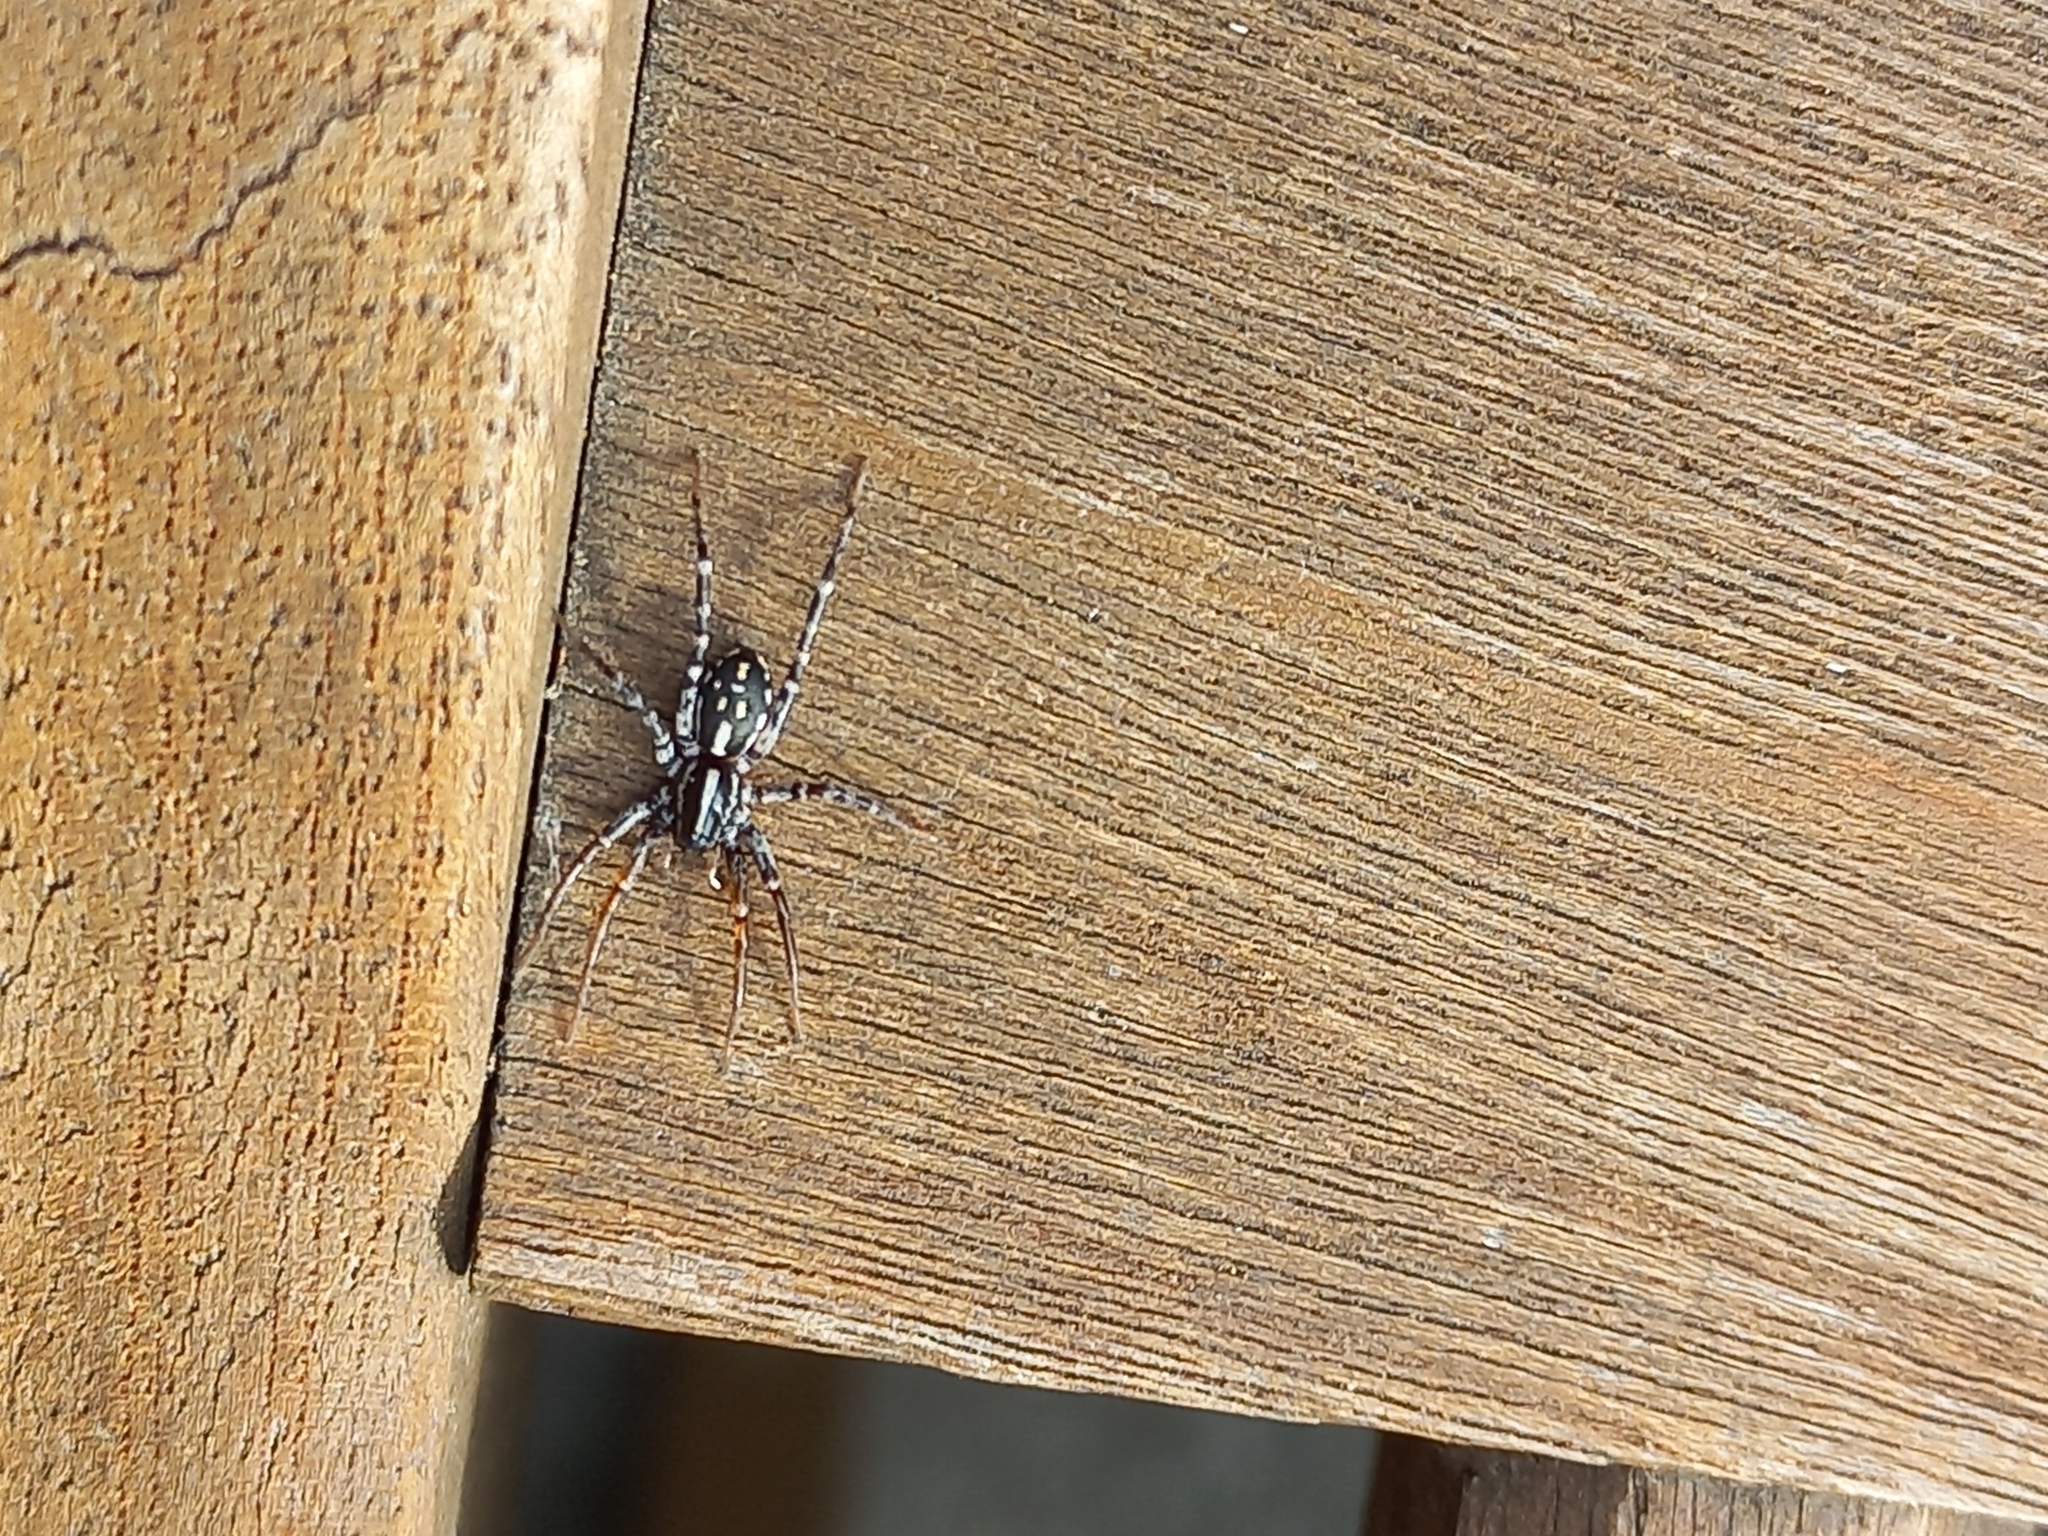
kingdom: Animalia
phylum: Arthropoda
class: Arachnida
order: Araneae
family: Corinnidae
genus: Nyssus
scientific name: Nyssus coloripes
